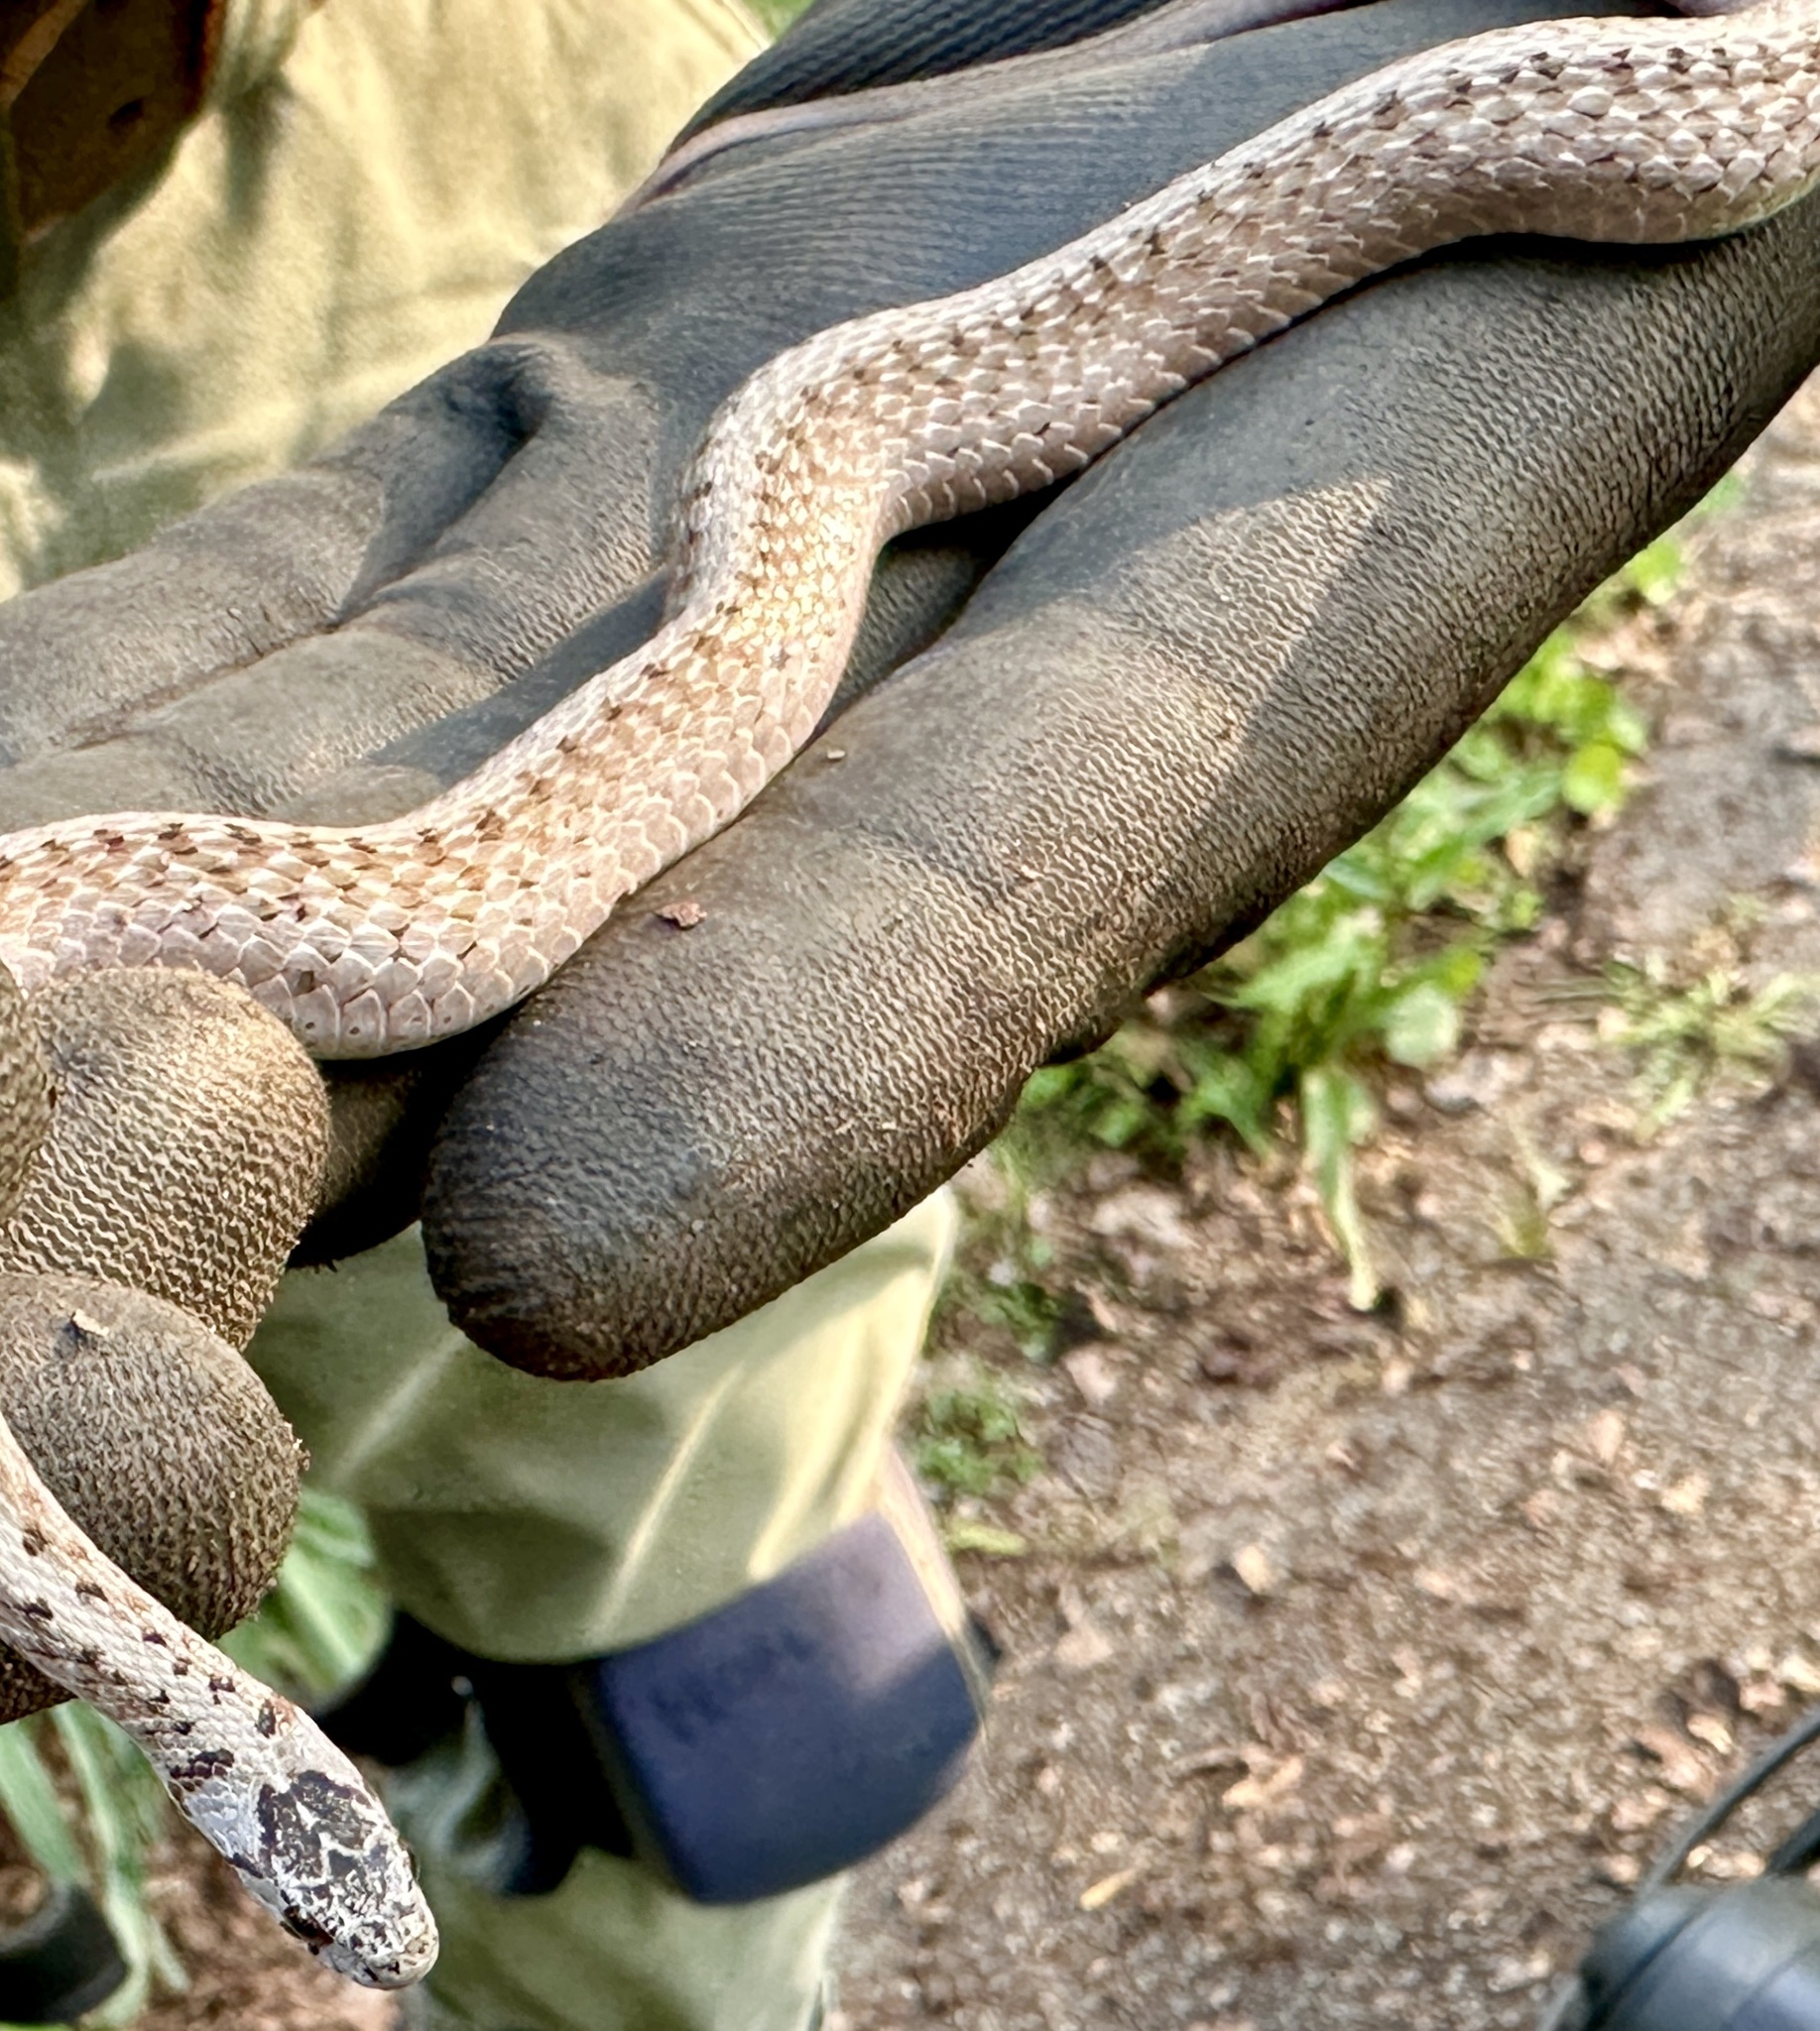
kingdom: Animalia
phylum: Chordata
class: Squamata
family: Colubridae
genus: Storeria
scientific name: Storeria dekayi
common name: (dekay’s) brown snake
